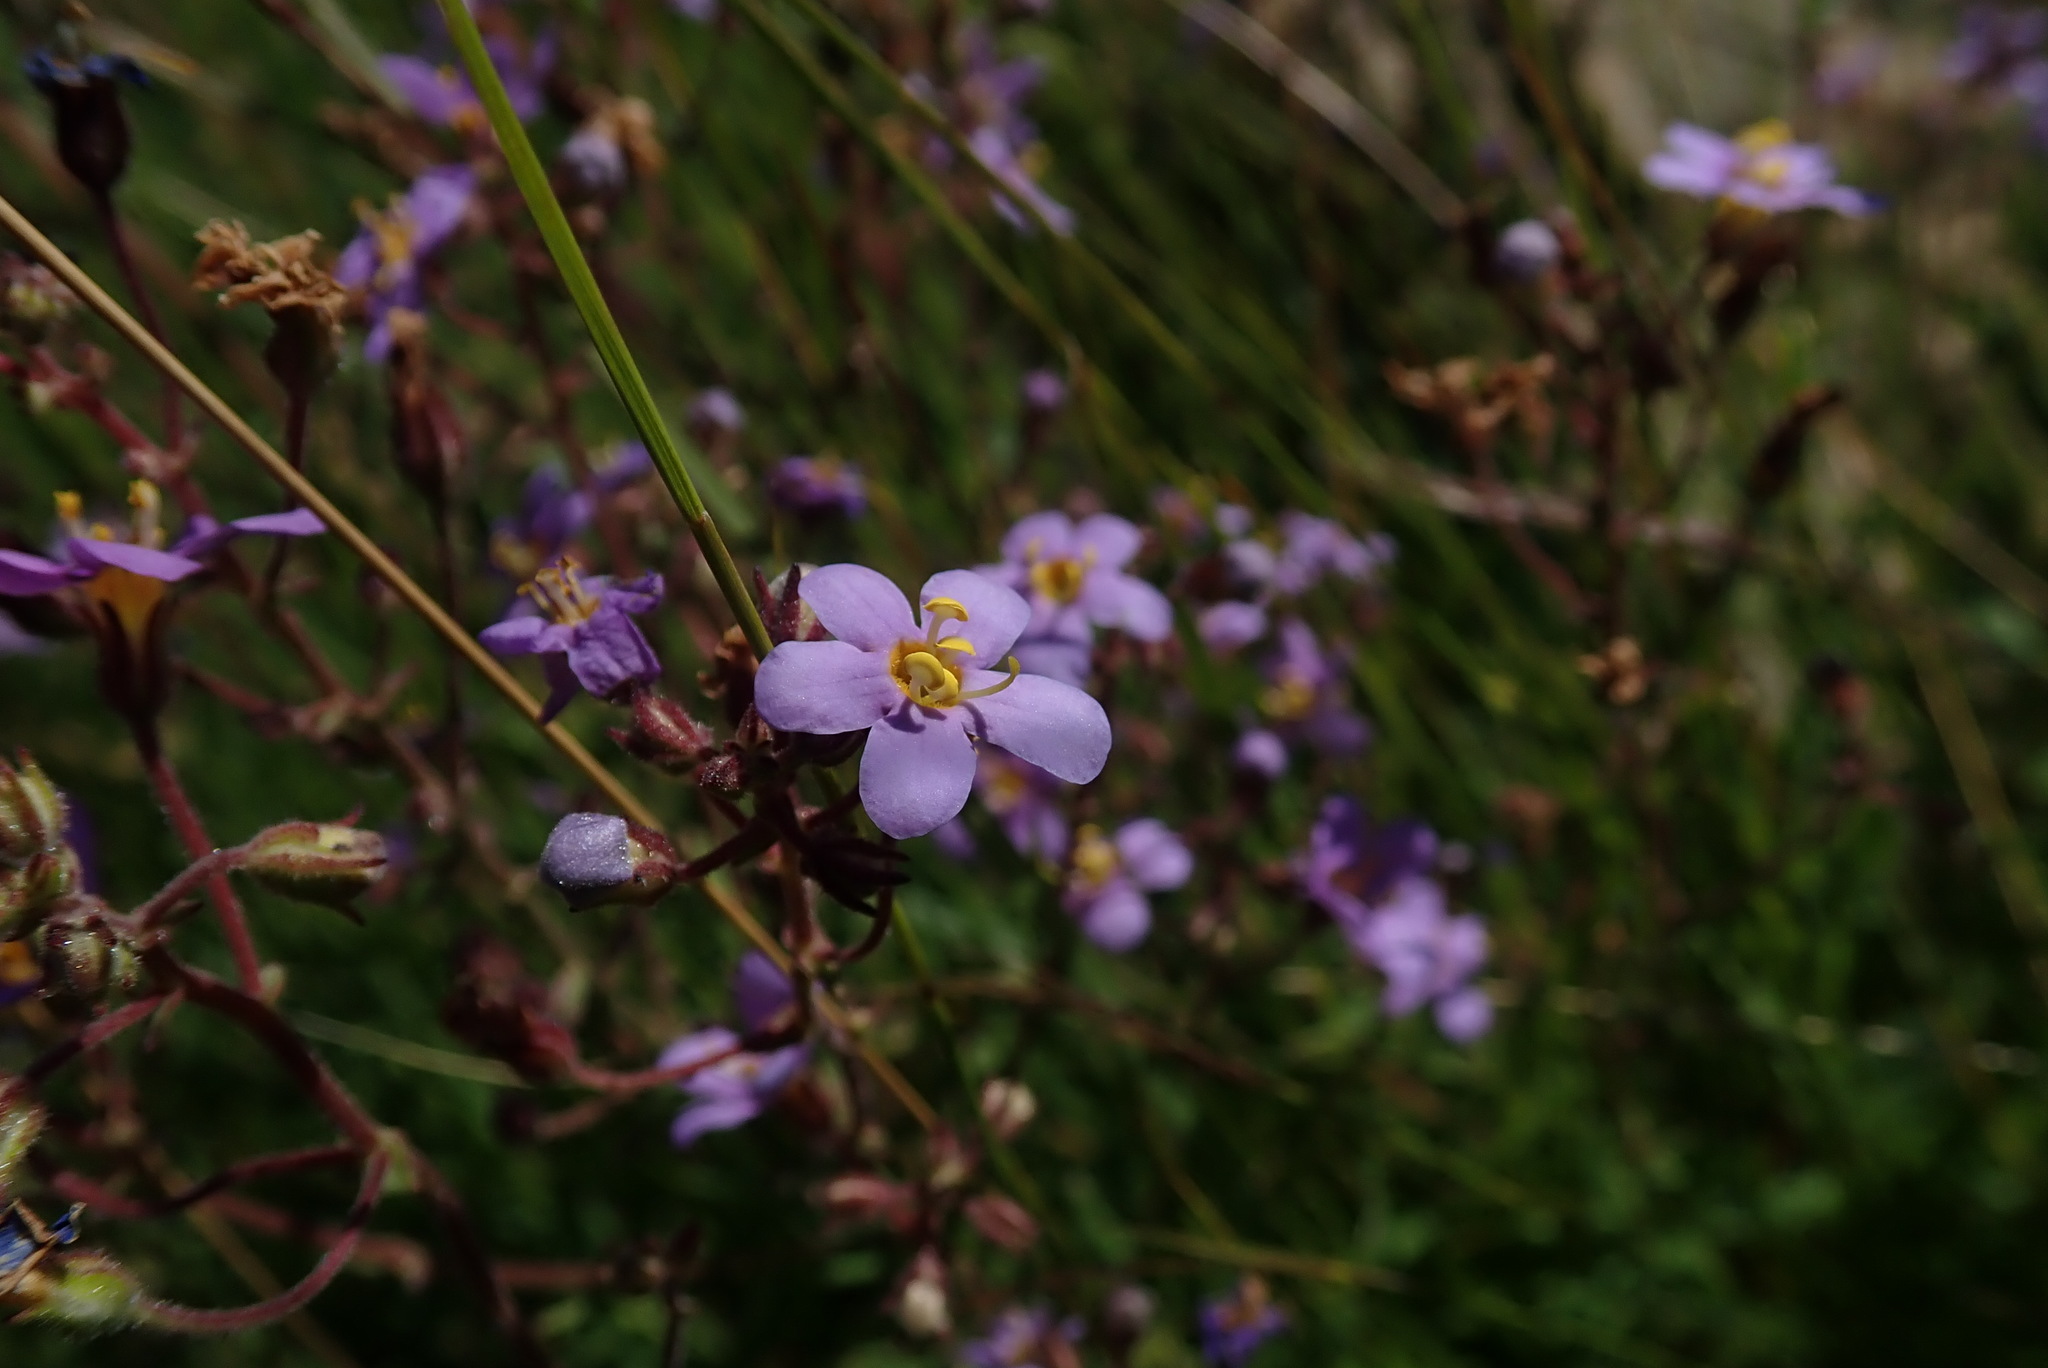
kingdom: Plantae
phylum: Tracheophyta
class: Magnoliopsida
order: Lamiales
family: Scrophulariaceae
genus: Chaenostoma
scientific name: Chaenostoma neglectum
